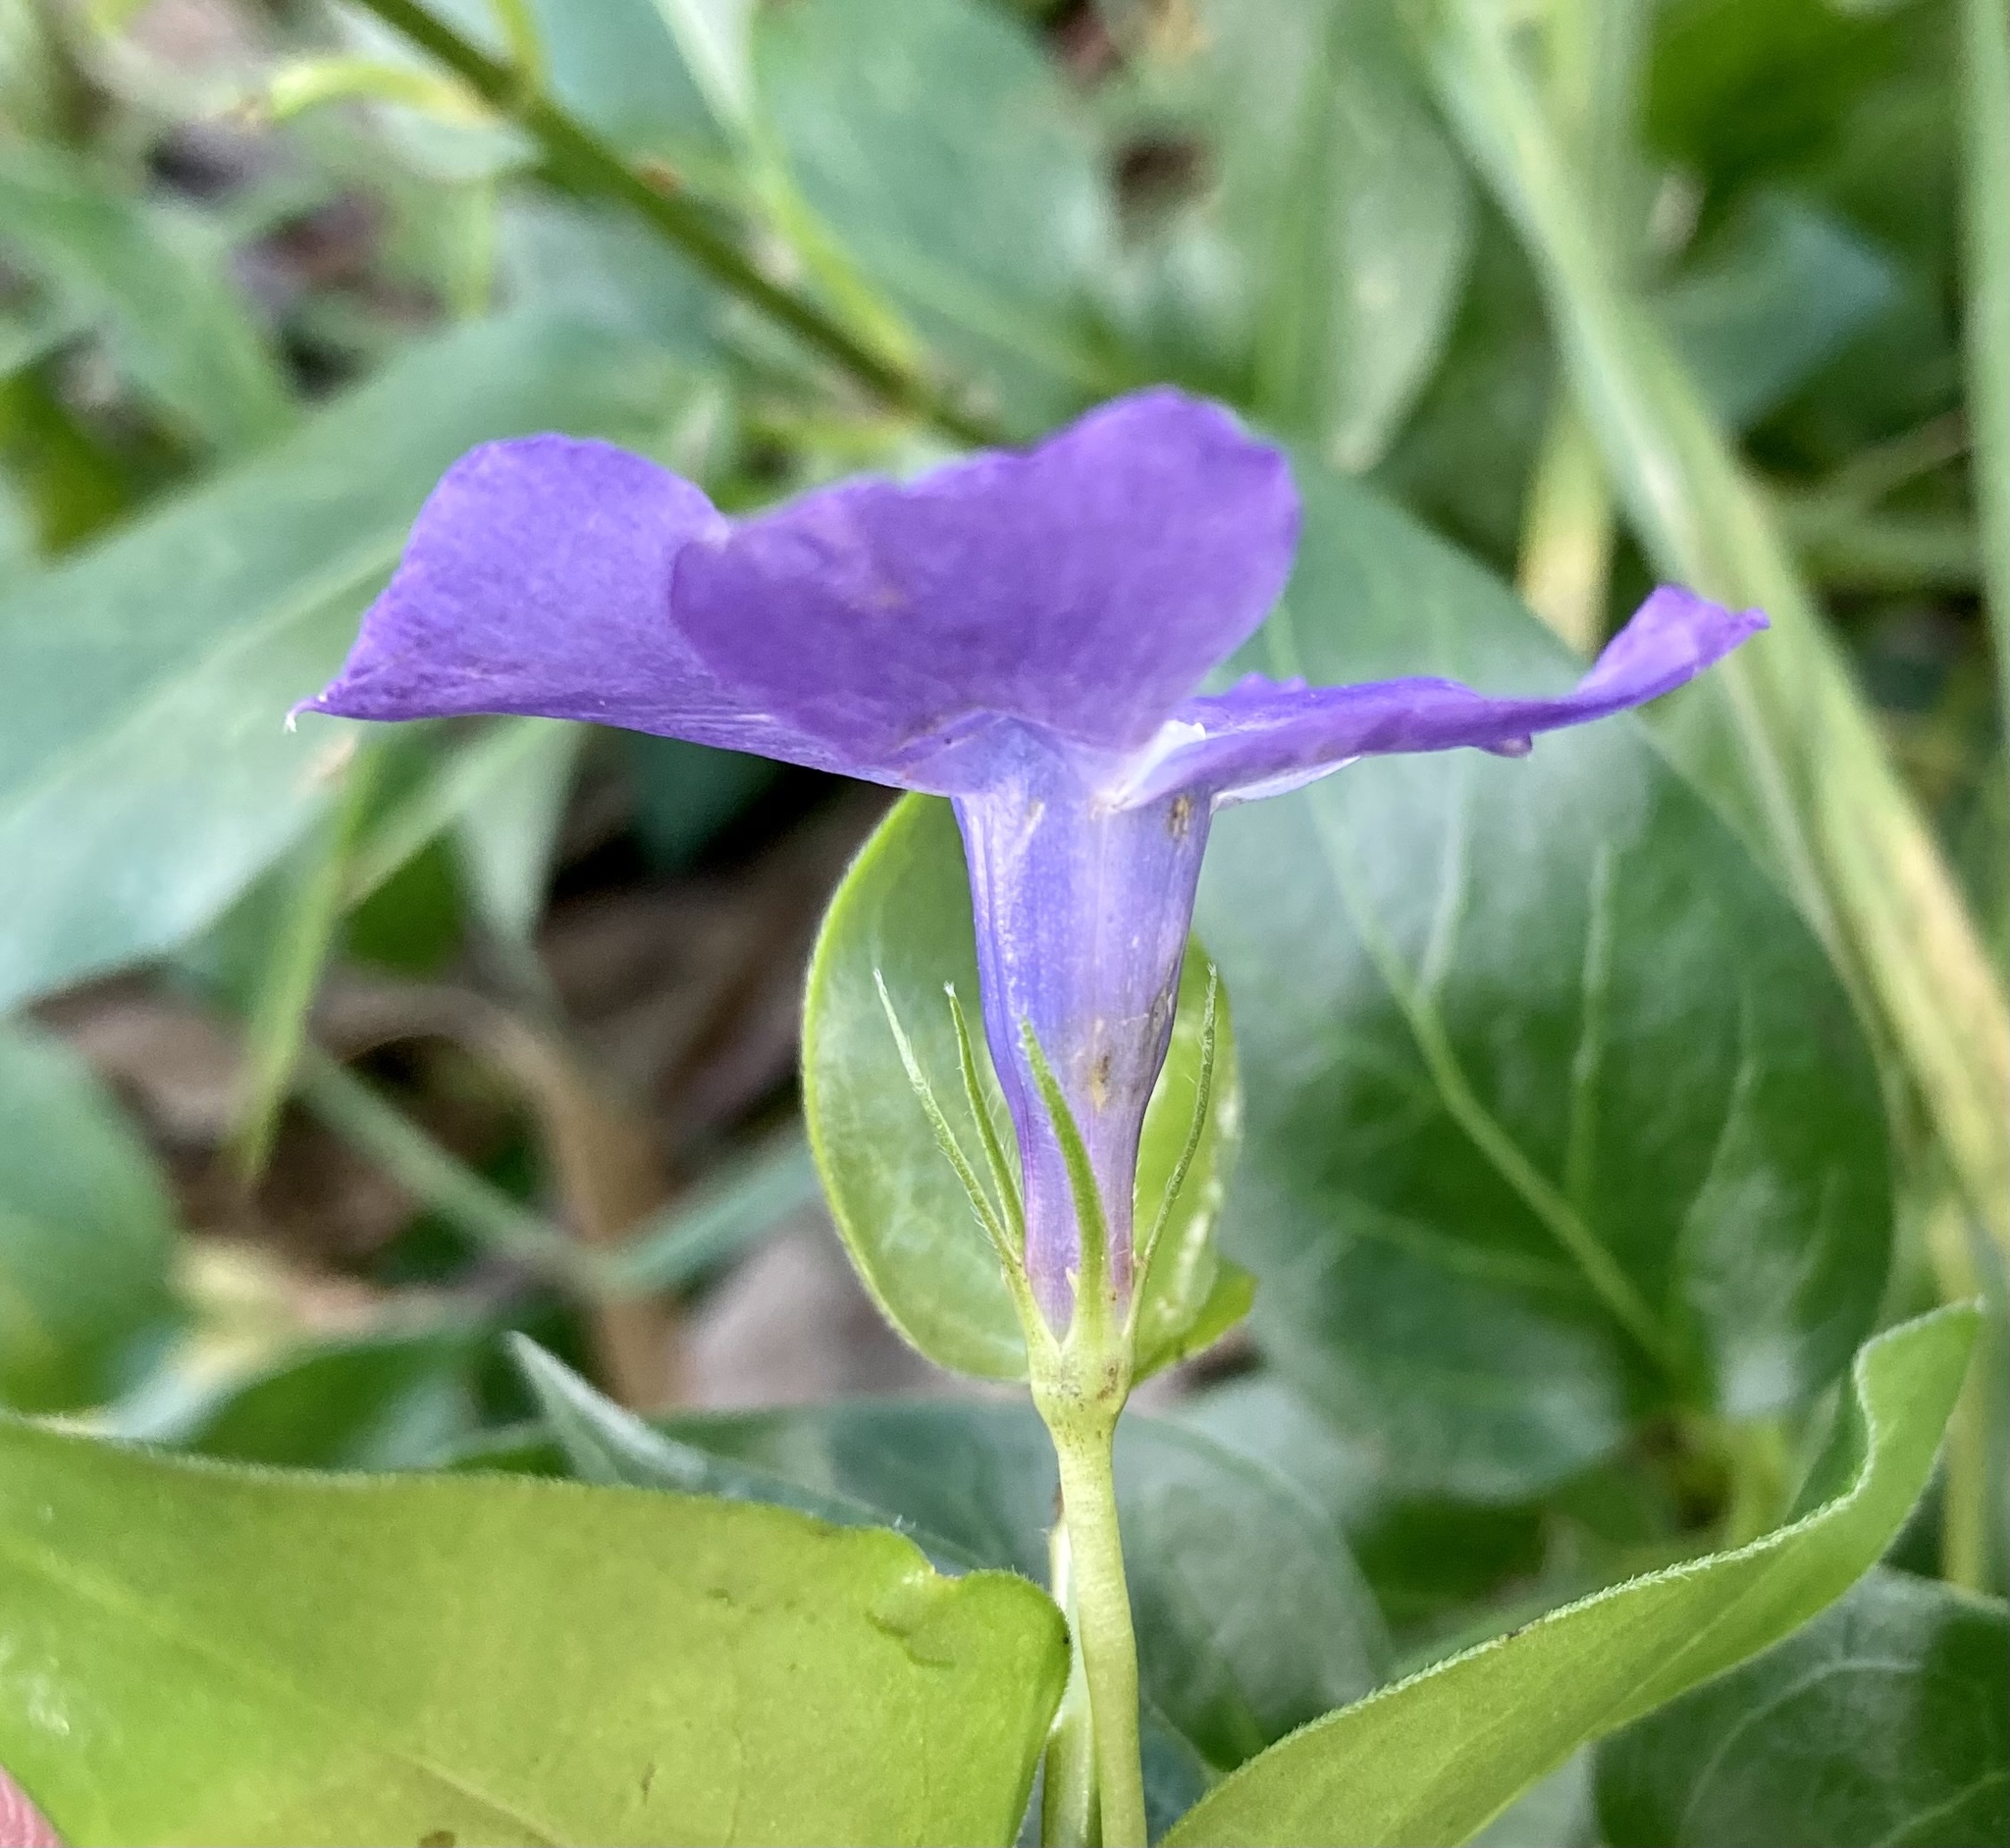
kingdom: Plantae
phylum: Tracheophyta
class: Magnoliopsida
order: Gentianales
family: Apocynaceae
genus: Vinca
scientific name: Vinca major
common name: Greater periwinkle
